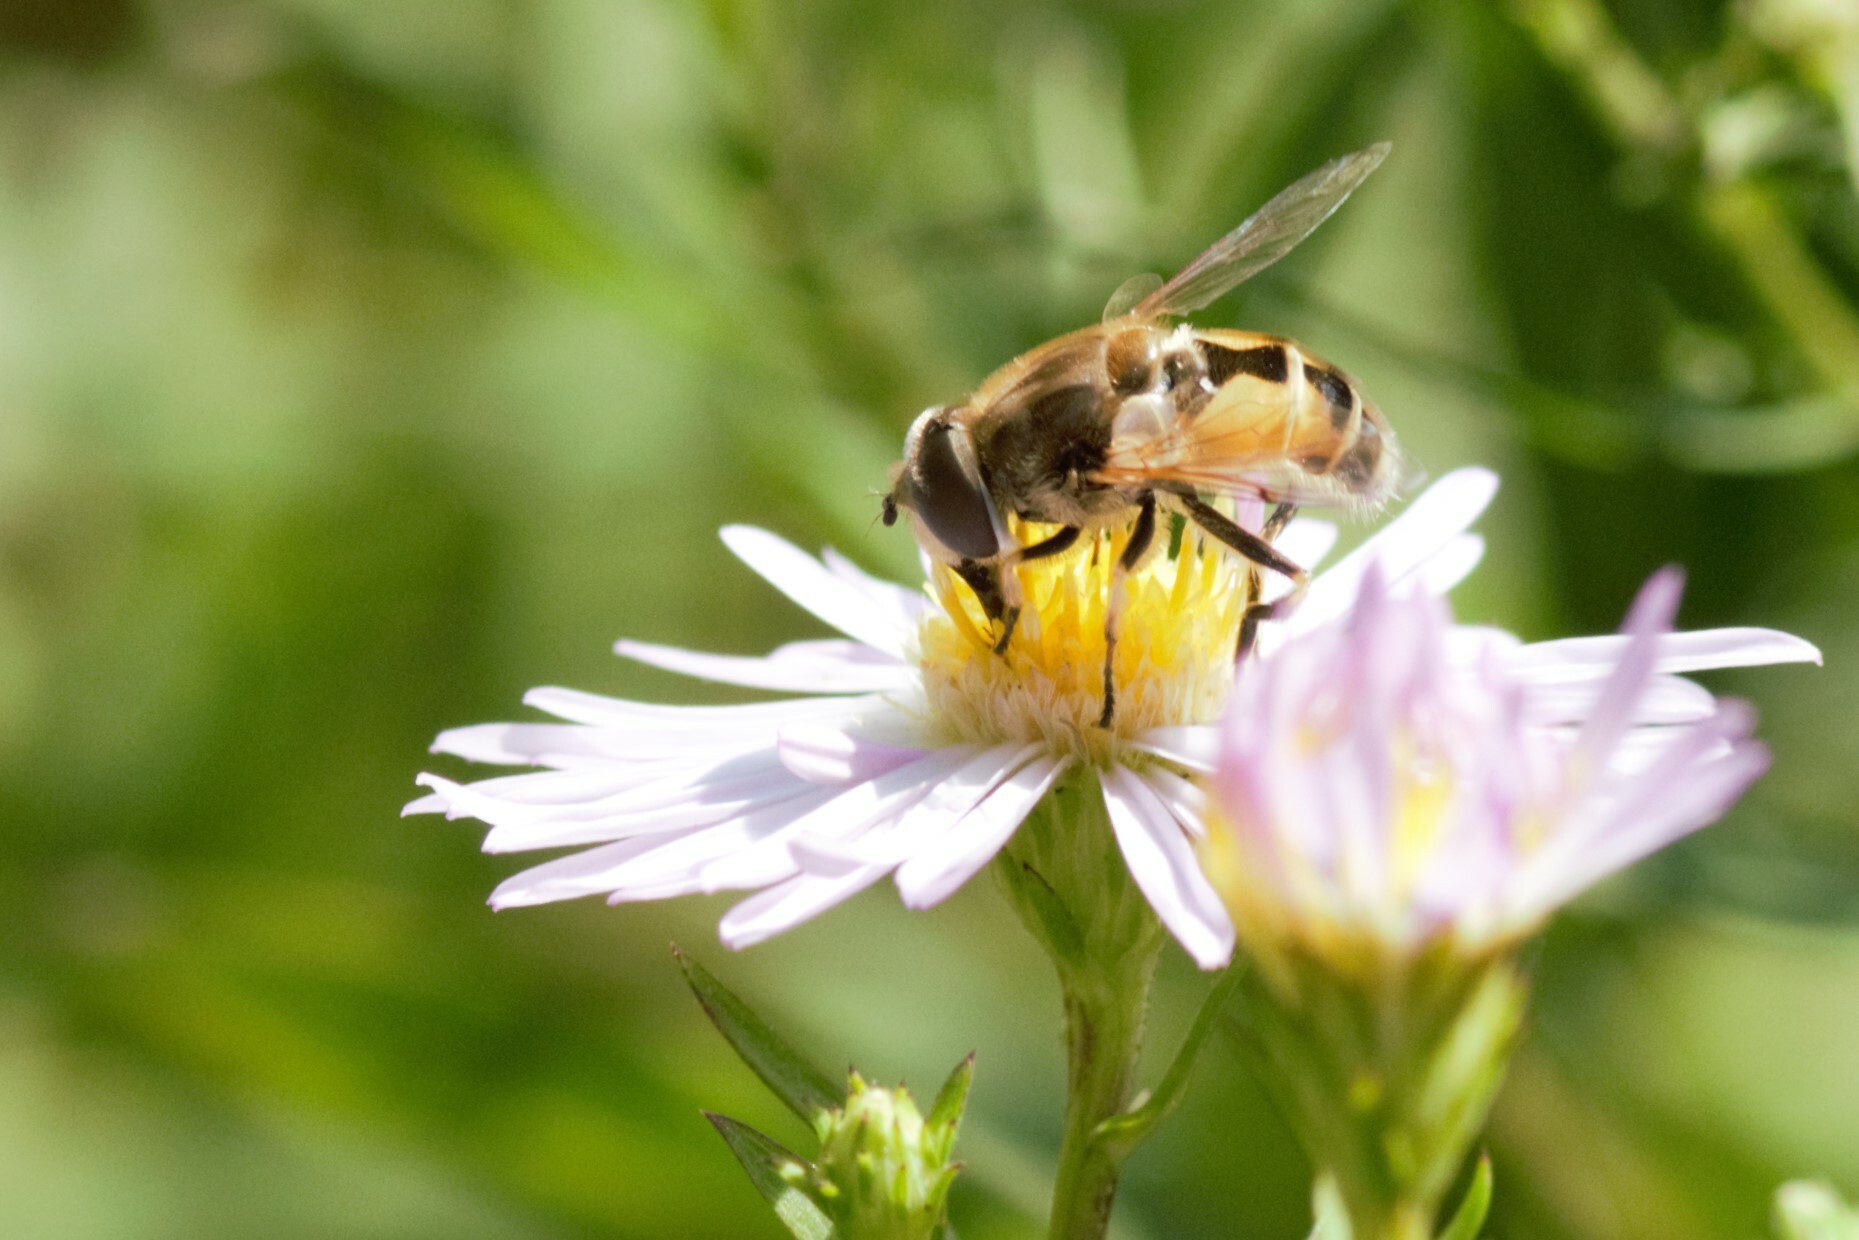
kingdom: Animalia
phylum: Arthropoda
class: Insecta
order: Diptera
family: Syrphidae
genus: Eristalis
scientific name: Eristalis arbustorum
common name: Hover fly
